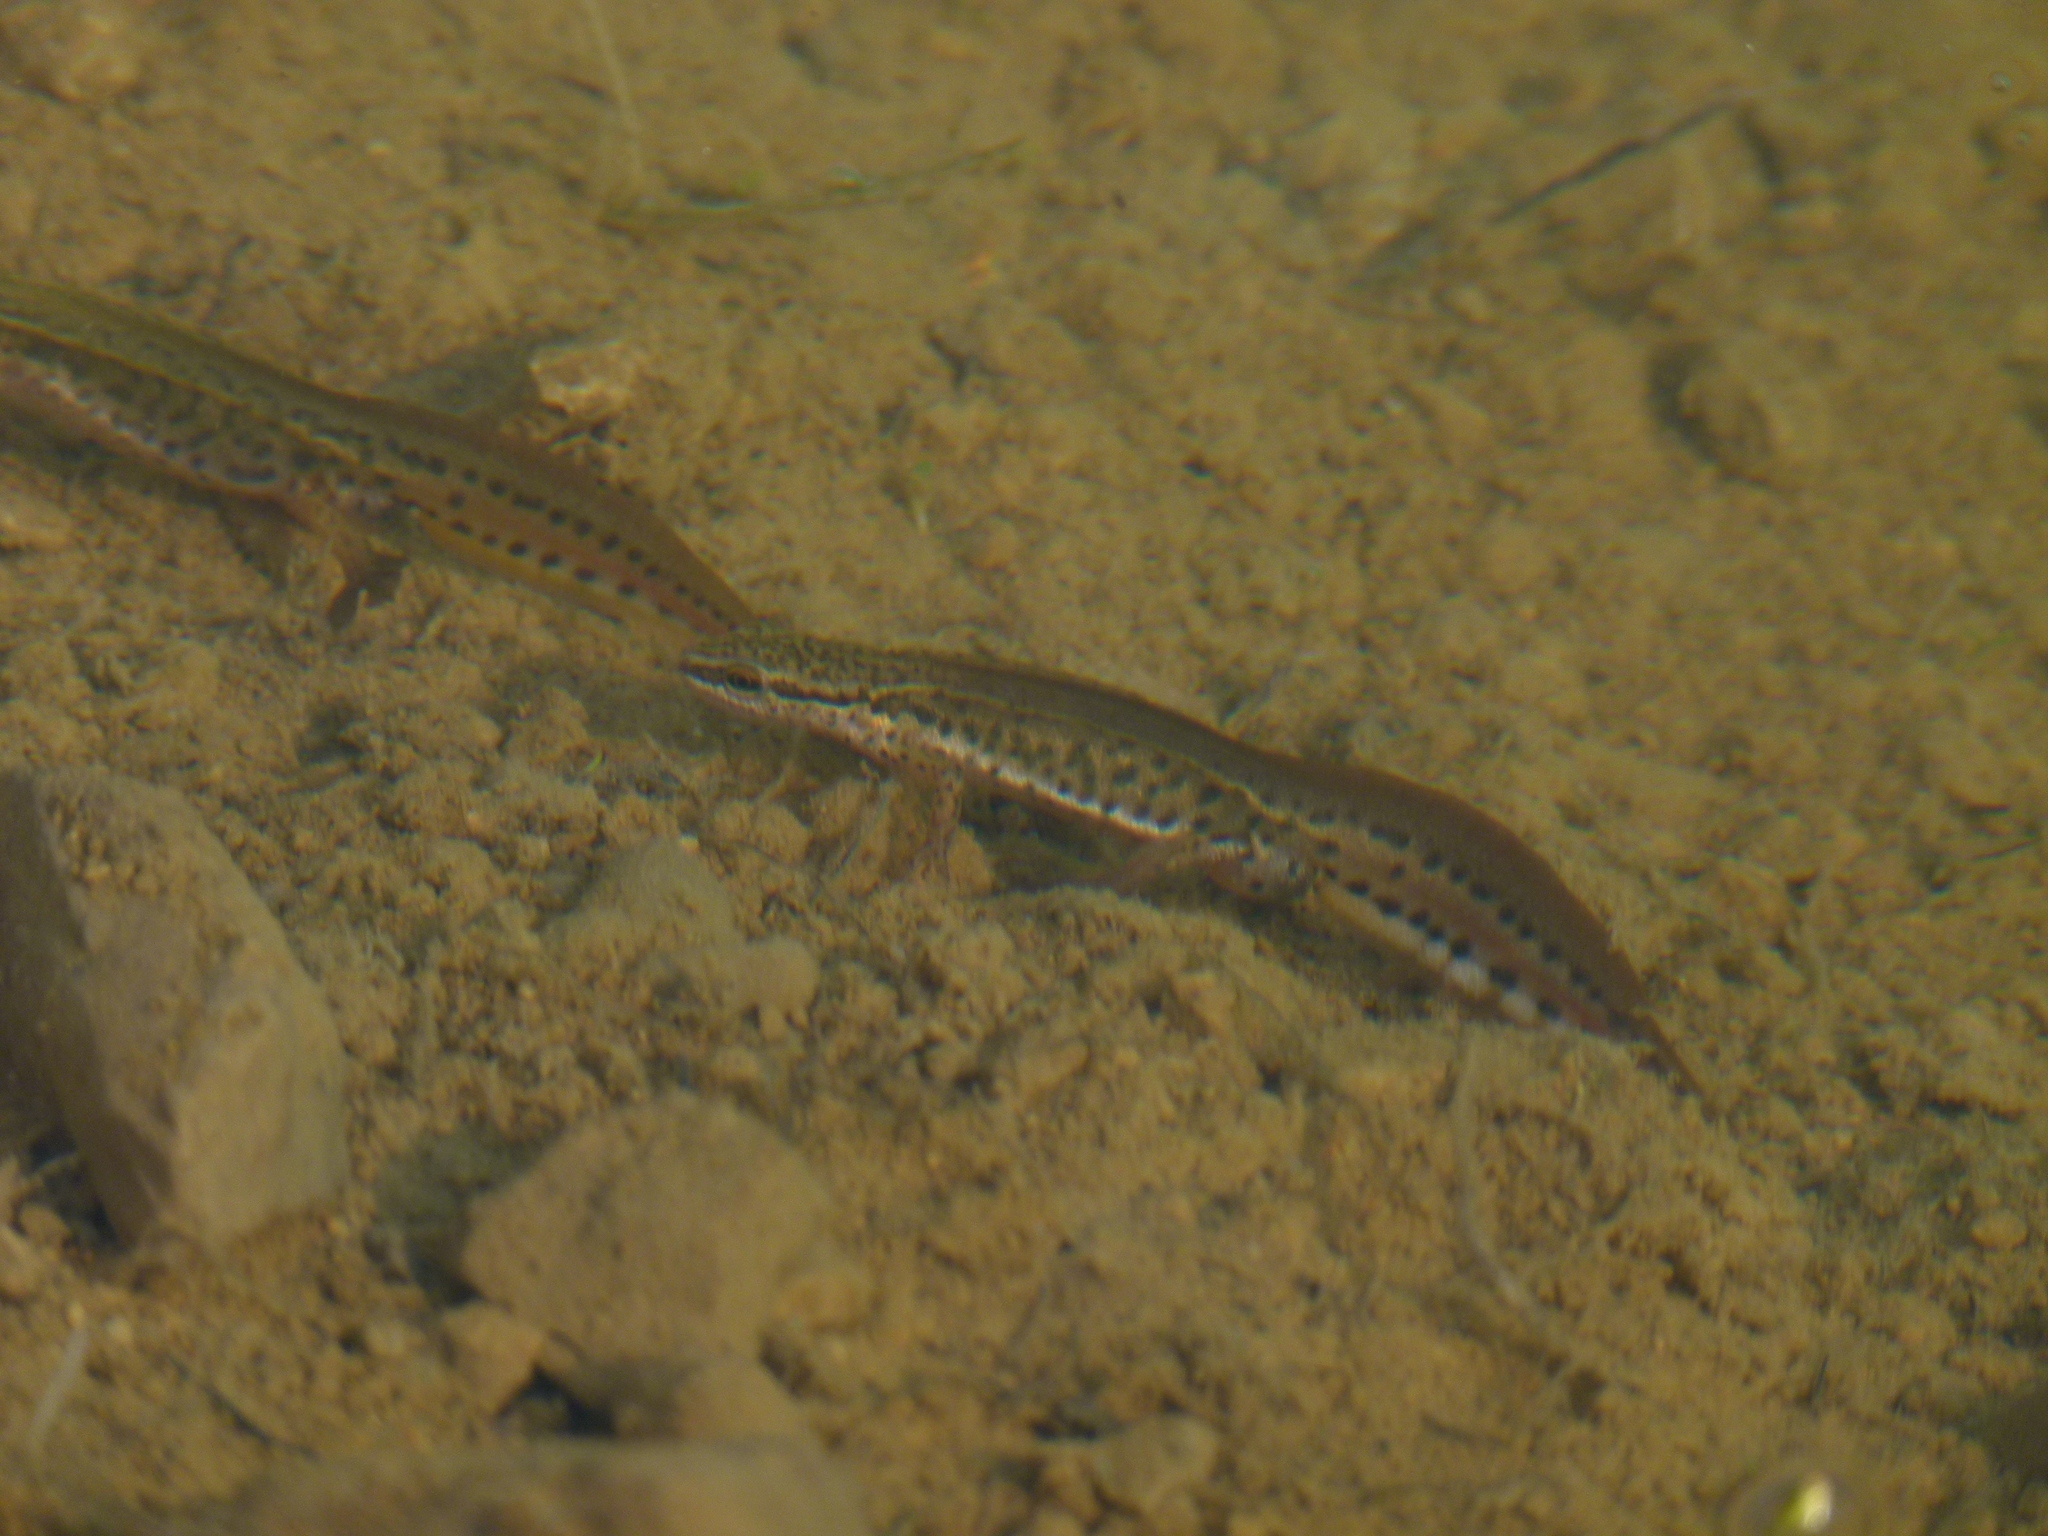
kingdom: Animalia
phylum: Chordata
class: Amphibia
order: Caudata
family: Salamandridae
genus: Lissotriton
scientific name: Lissotriton helveticus
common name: Palmate newt
